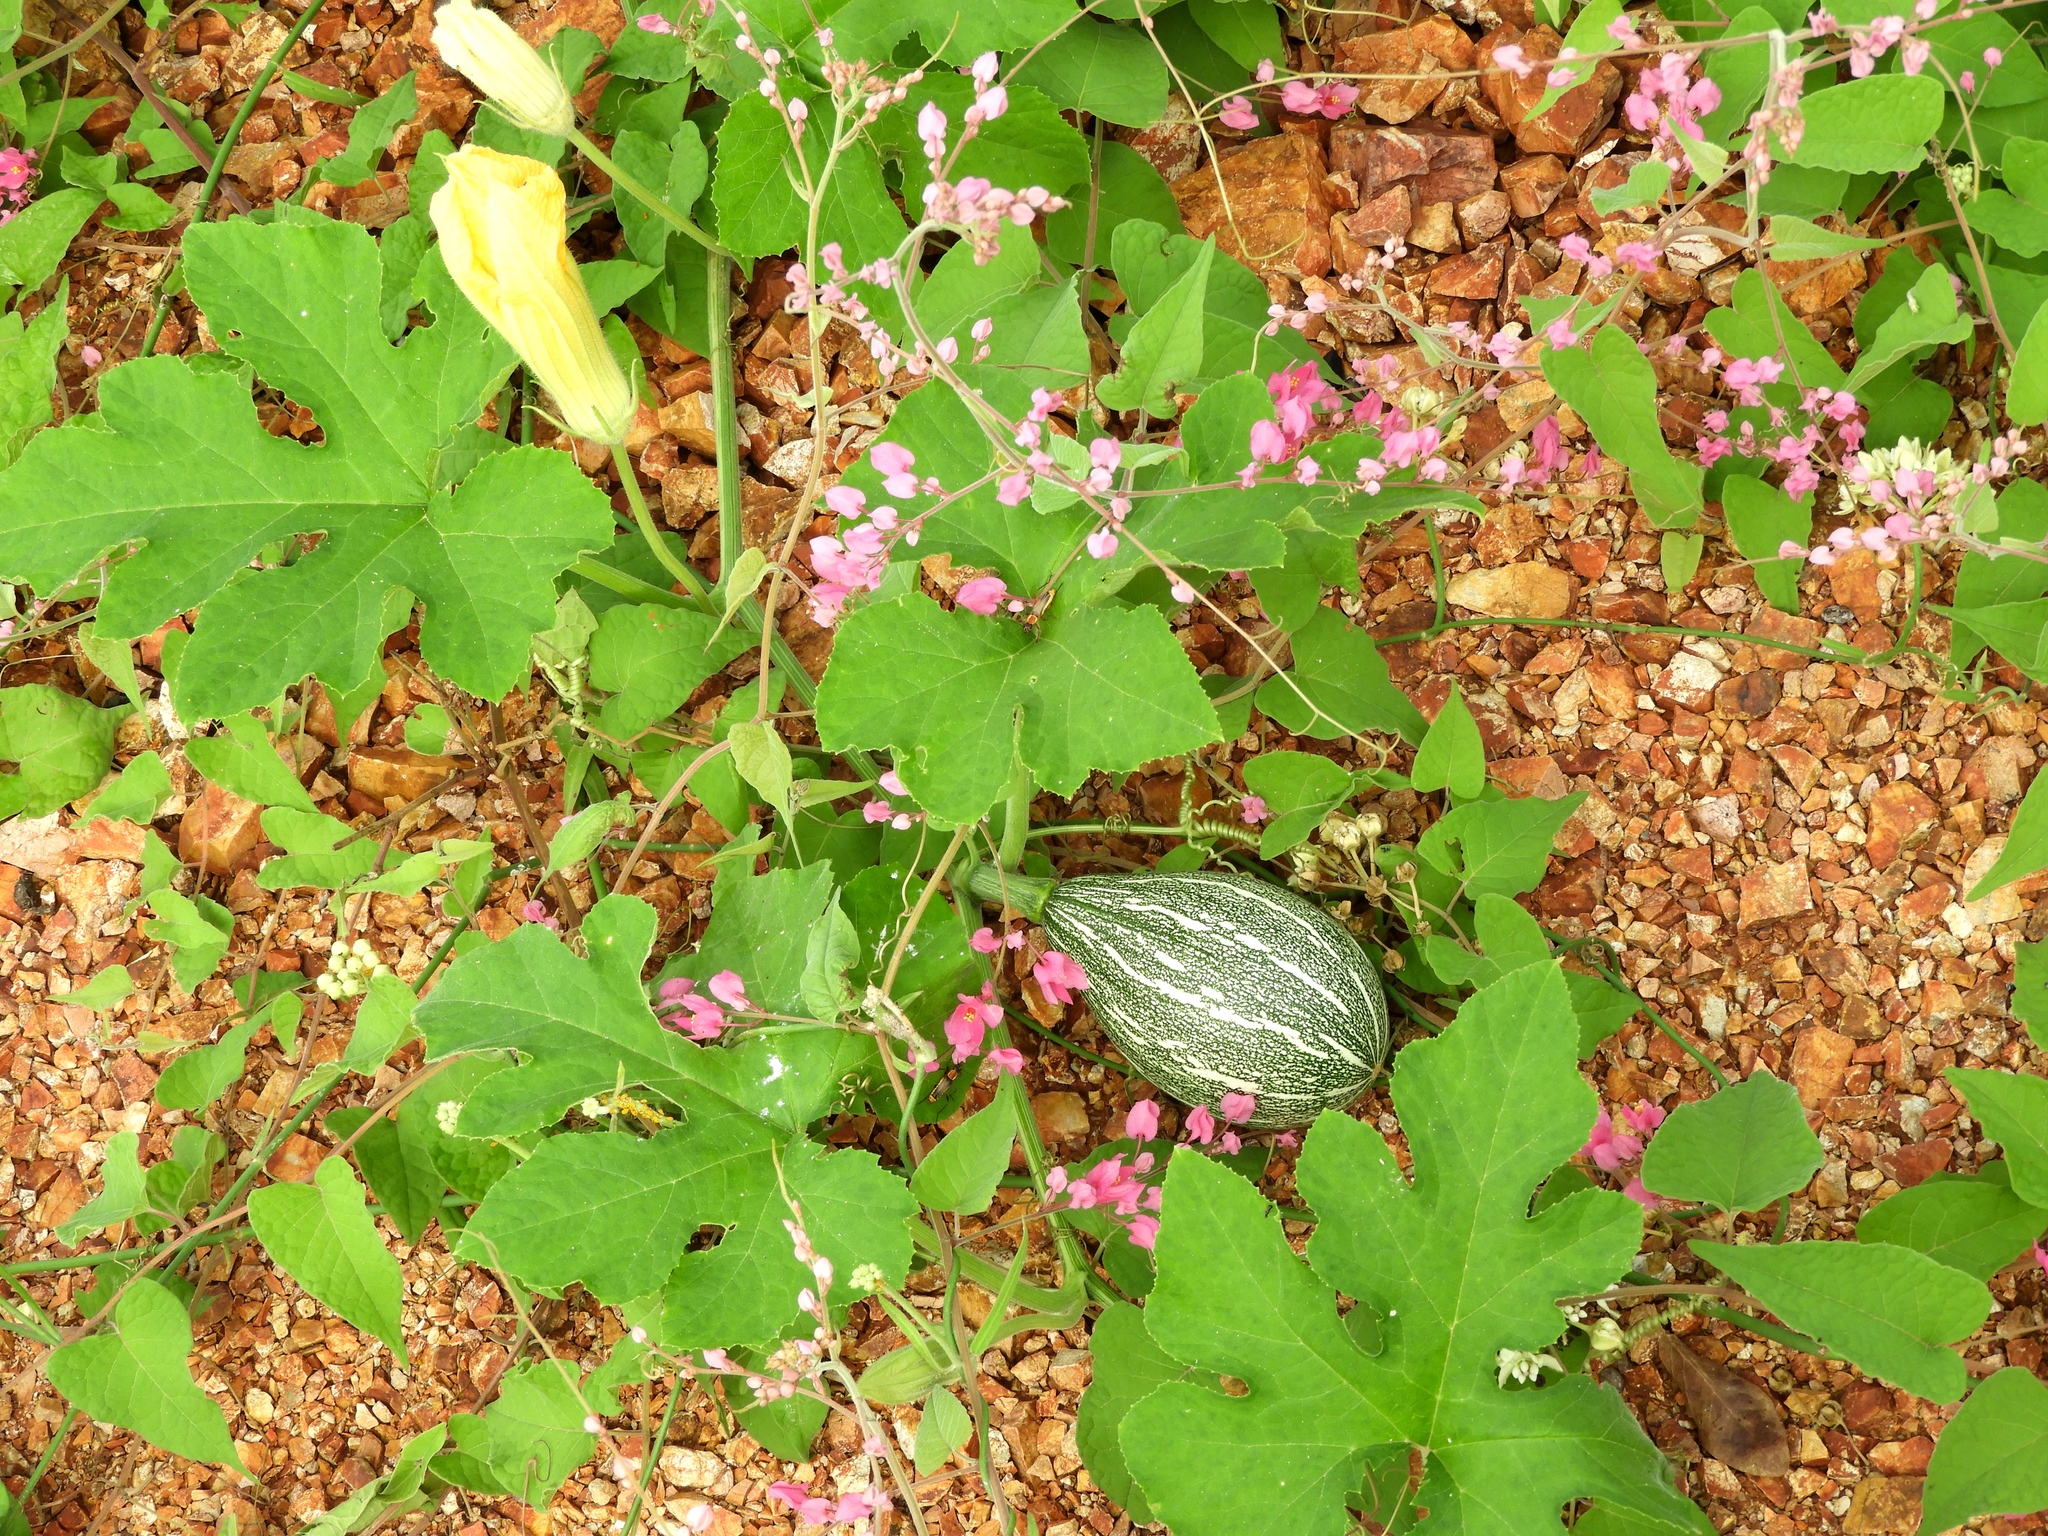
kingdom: Plantae
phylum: Tracheophyta
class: Magnoliopsida
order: Cucurbitales
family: Cucurbitaceae
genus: Cucurbita
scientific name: Cucurbita argyrosperma
